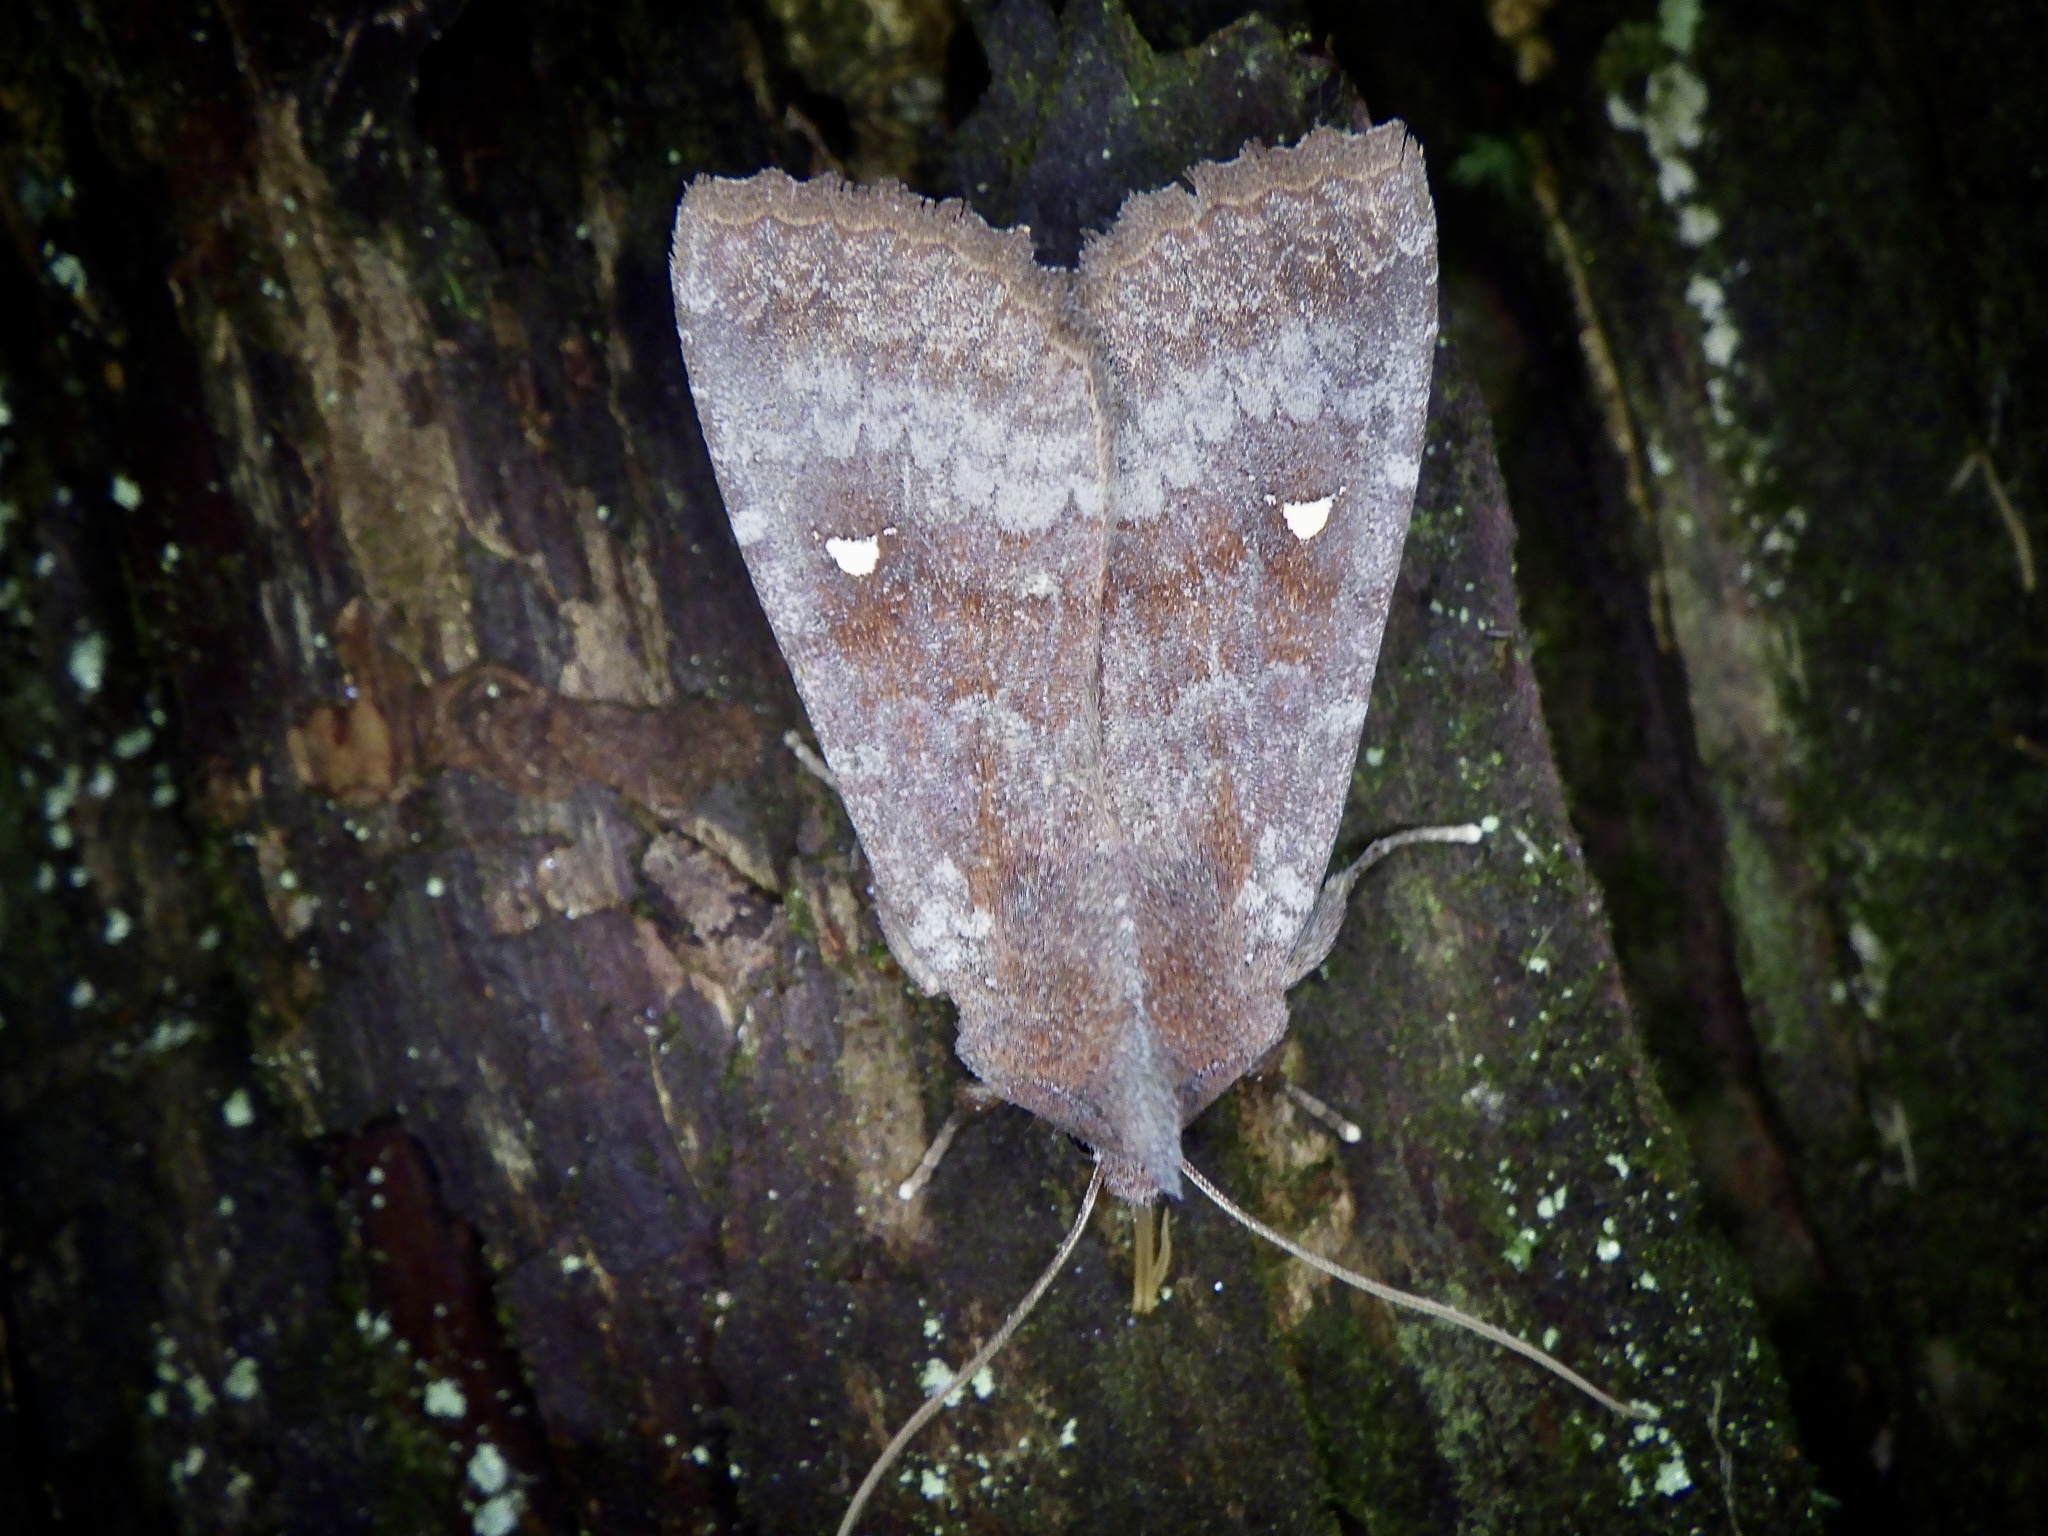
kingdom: Animalia
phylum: Arthropoda
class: Insecta
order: Lepidoptera
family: Noctuidae
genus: Eupsilia
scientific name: Eupsilia unipuncta
